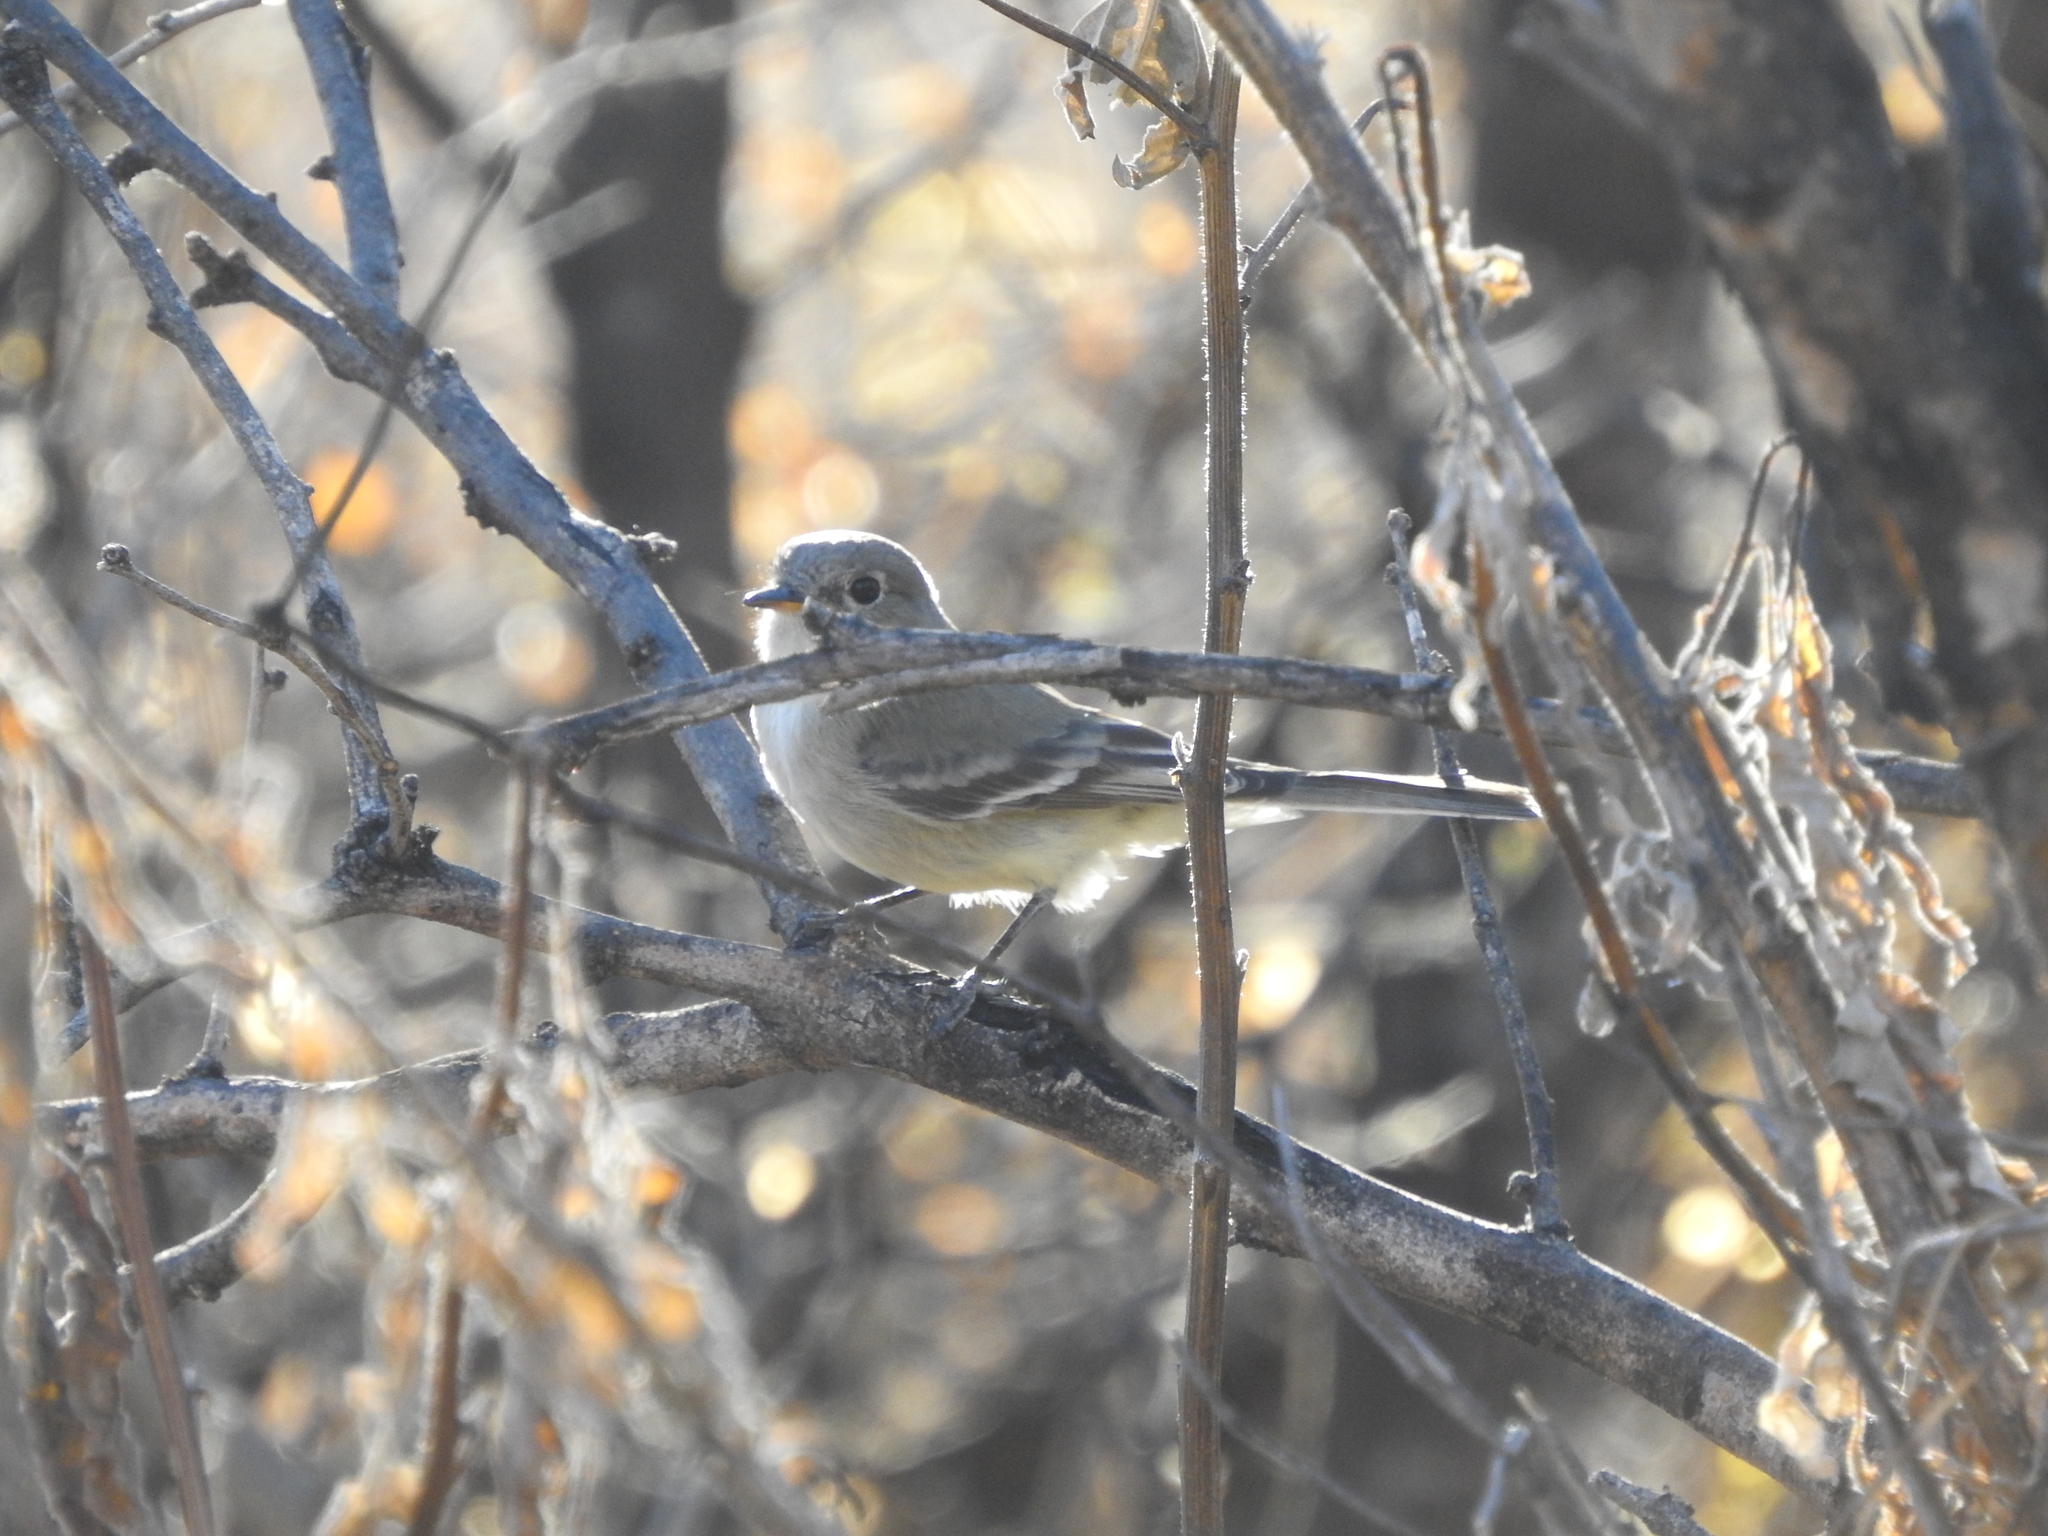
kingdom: Animalia
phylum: Chordata
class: Aves
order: Passeriformes
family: Tyrannidae
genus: Empidonax
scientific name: Empidonax wrightii
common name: Gray flycatcher
